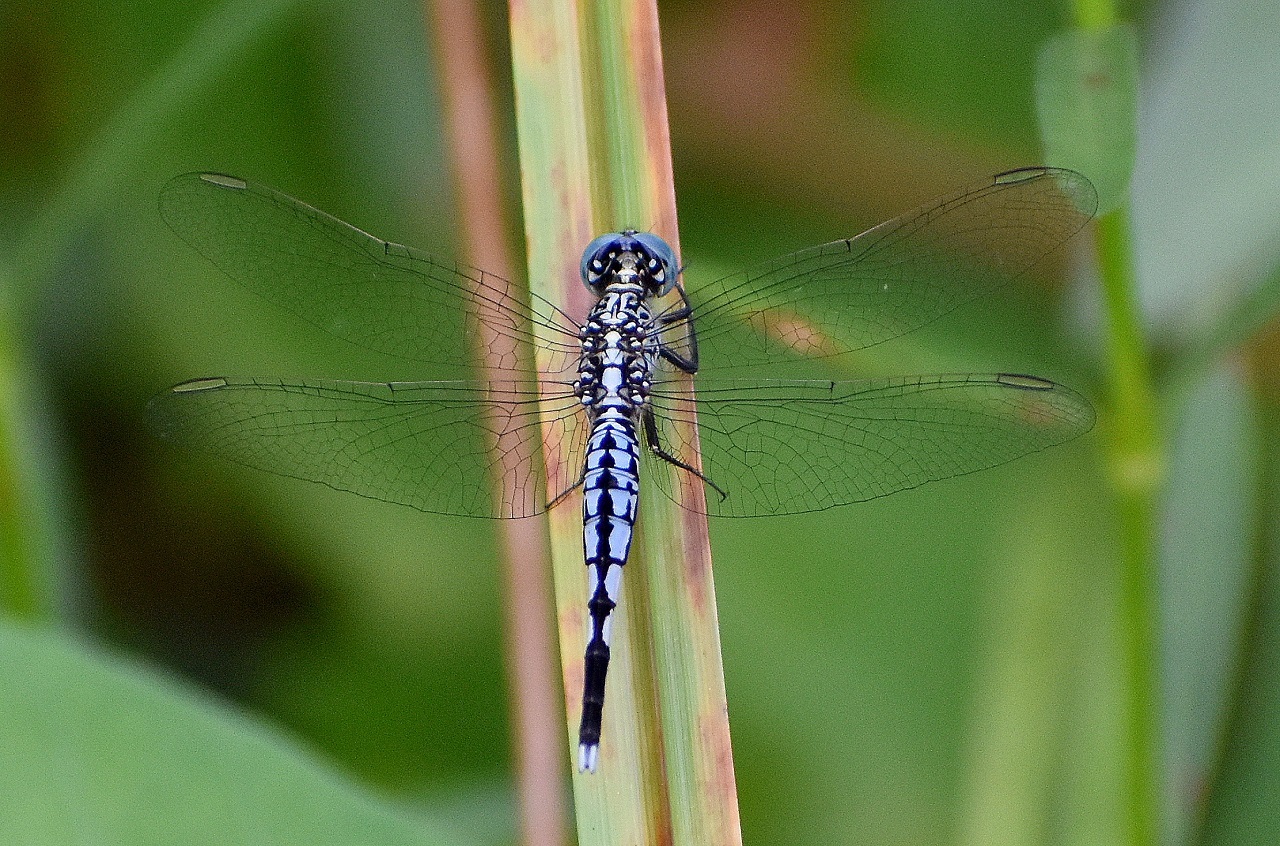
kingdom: Animalia
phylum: Arthropoda
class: Insecta
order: Odonata
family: Libellulidae
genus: Acisoma
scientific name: Acisoma panorpoides
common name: Asian pintail
